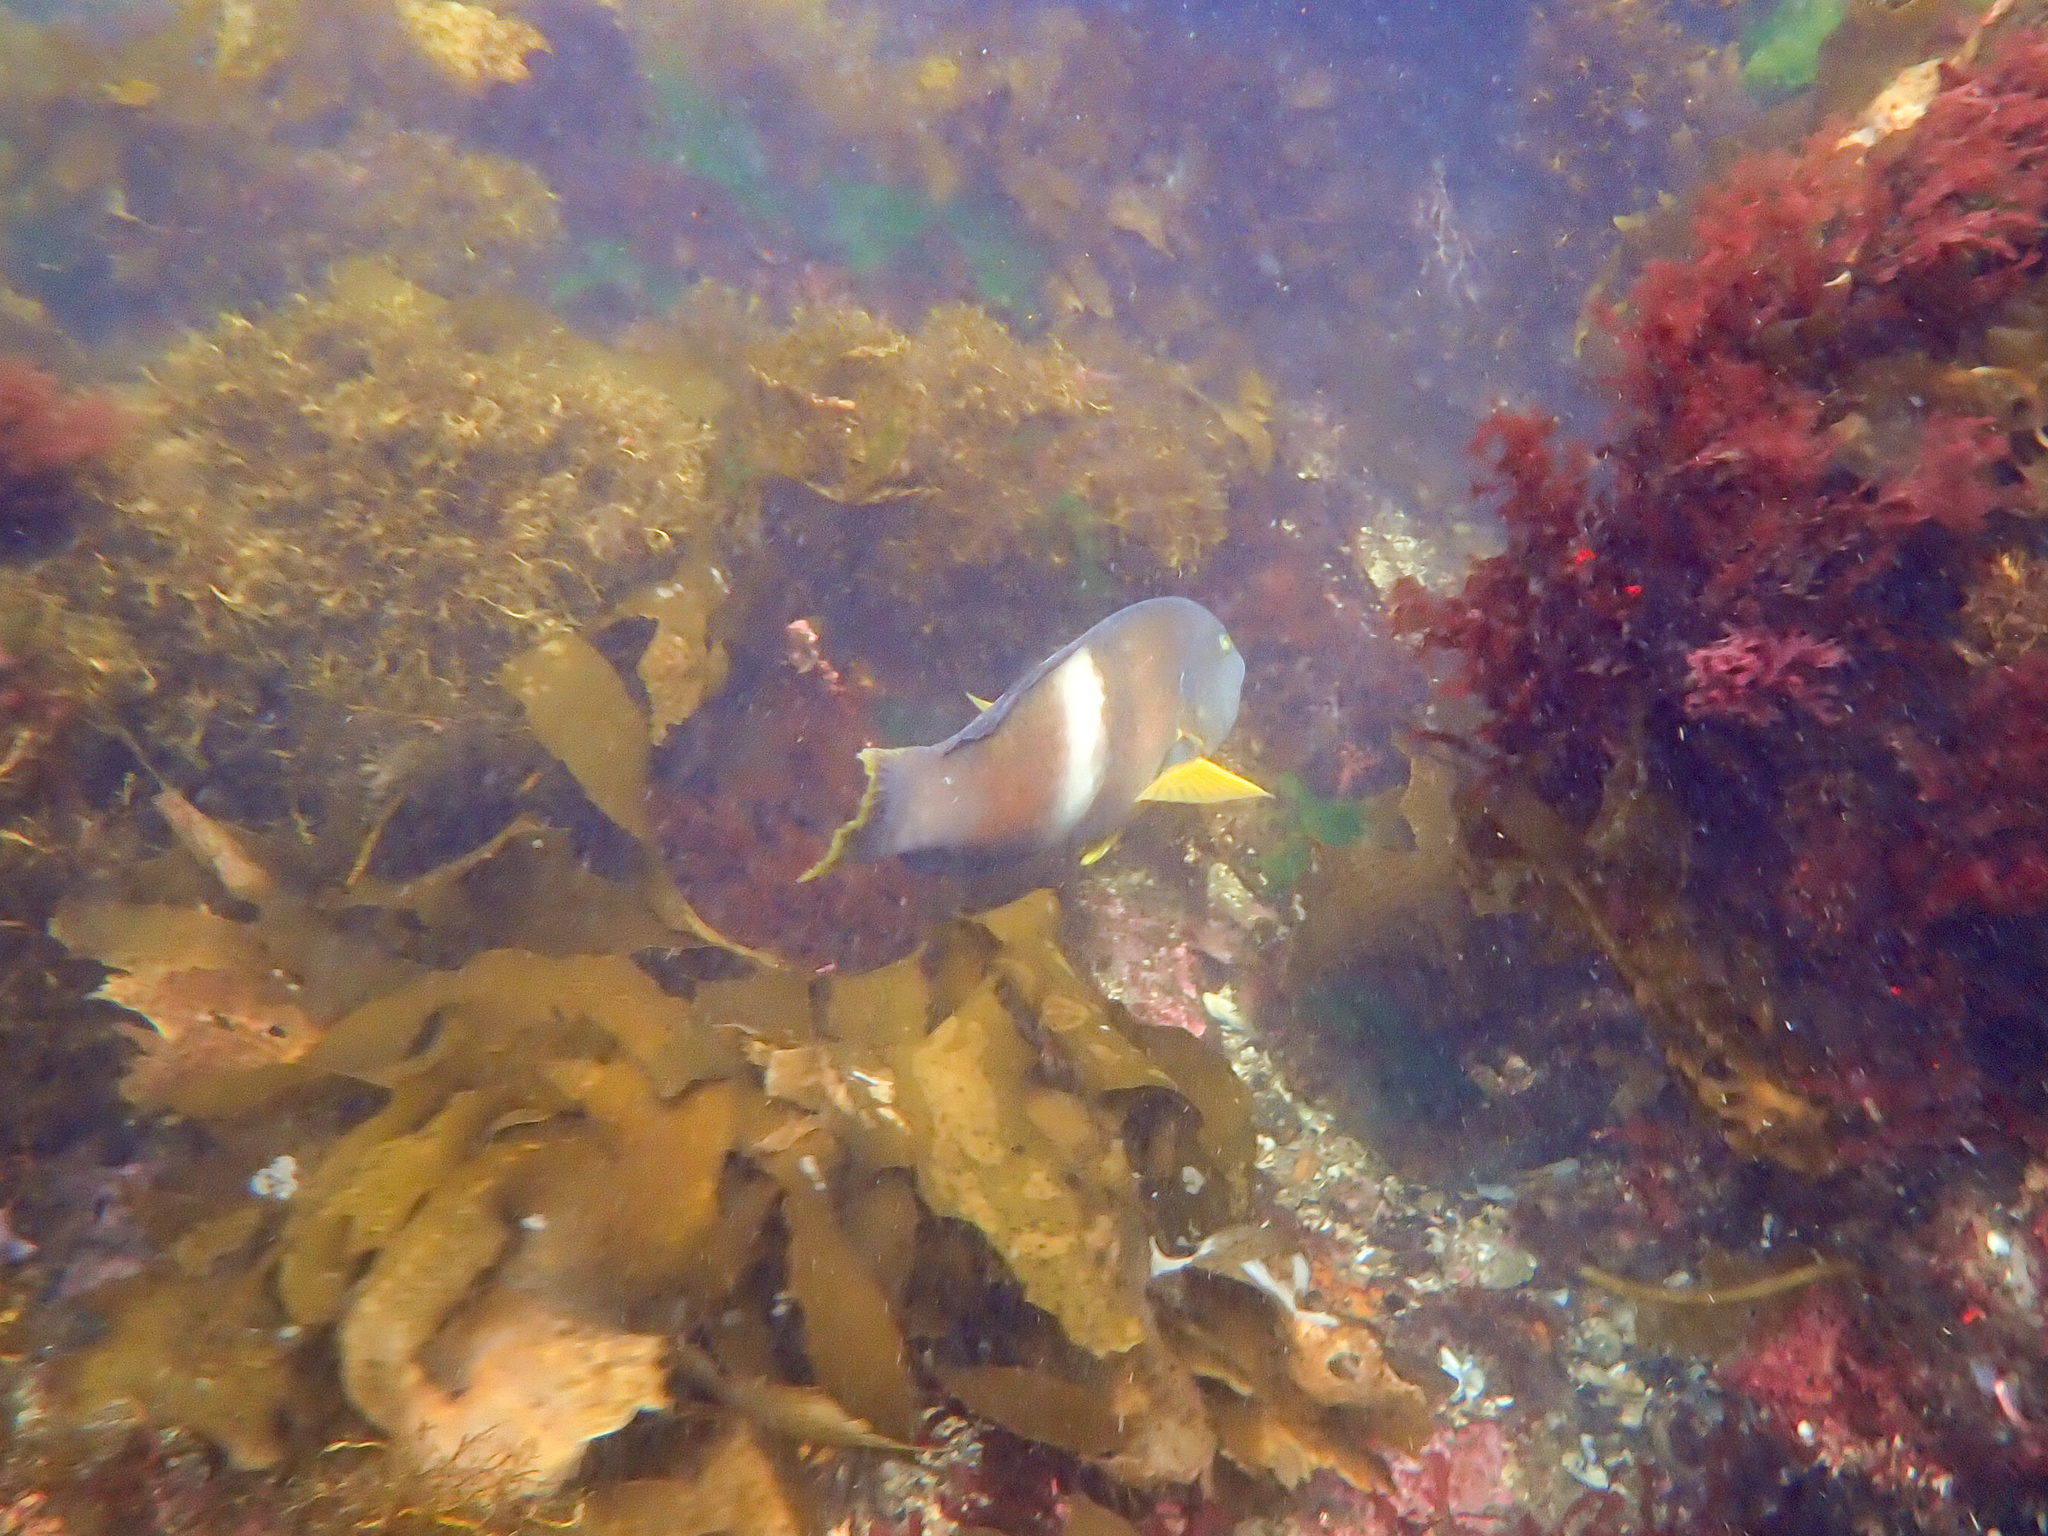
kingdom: Animalia
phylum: Chordata
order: Perciformes
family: Labridae
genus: Notolabrus
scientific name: Notolabrus tetricus
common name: Blue-throated parrotfish
